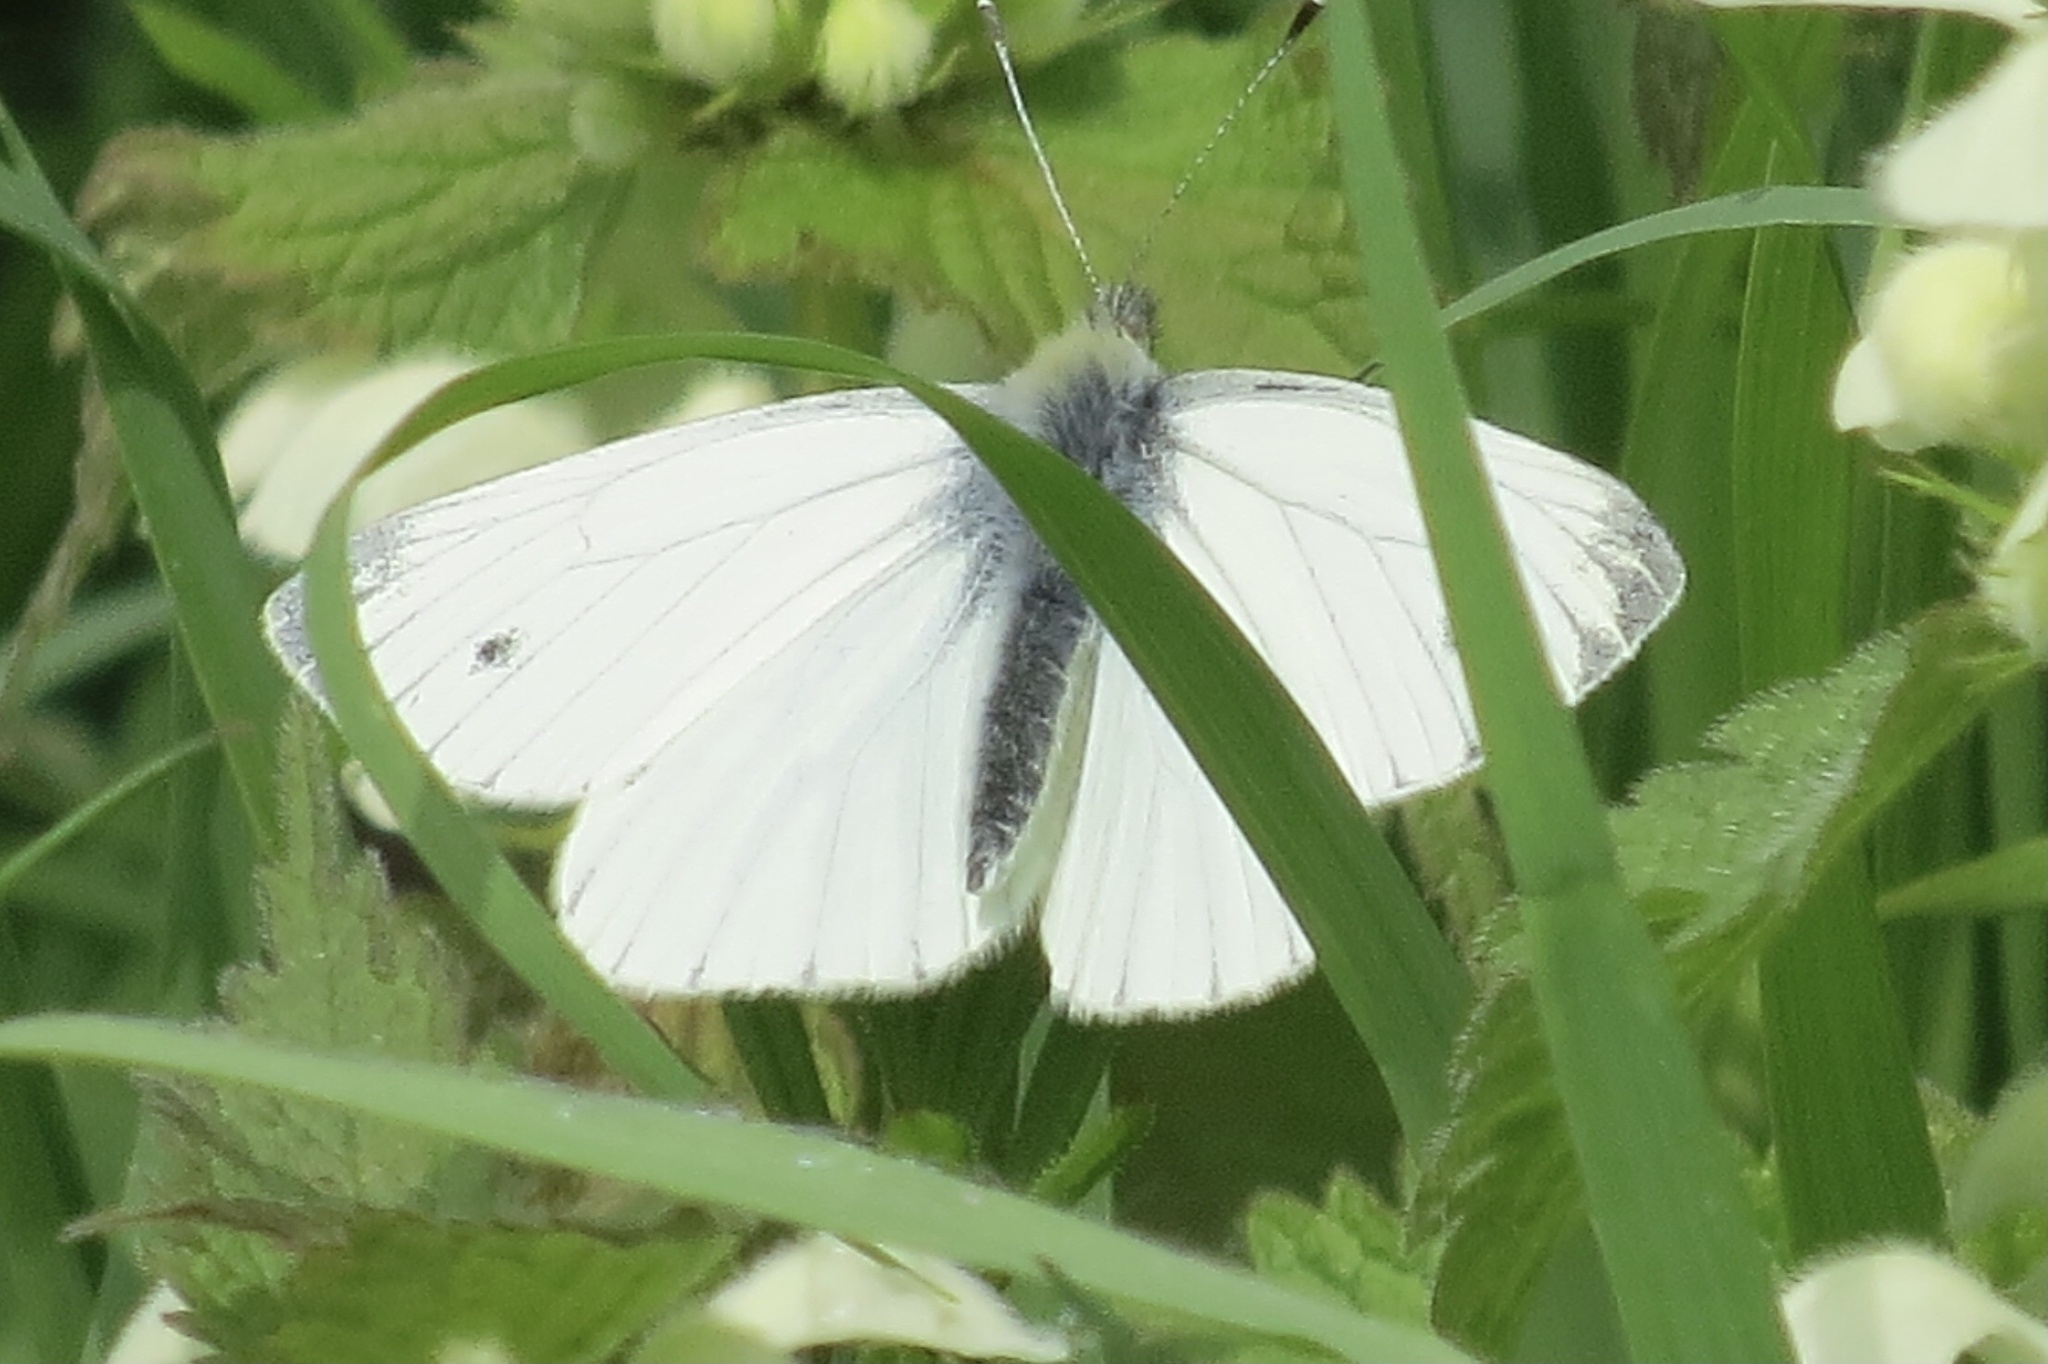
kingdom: Animalia
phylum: Arthropoda
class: Insecta
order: Lepidoptera
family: Pieridae
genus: Pieris
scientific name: Pieris napi
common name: Green-veined white
